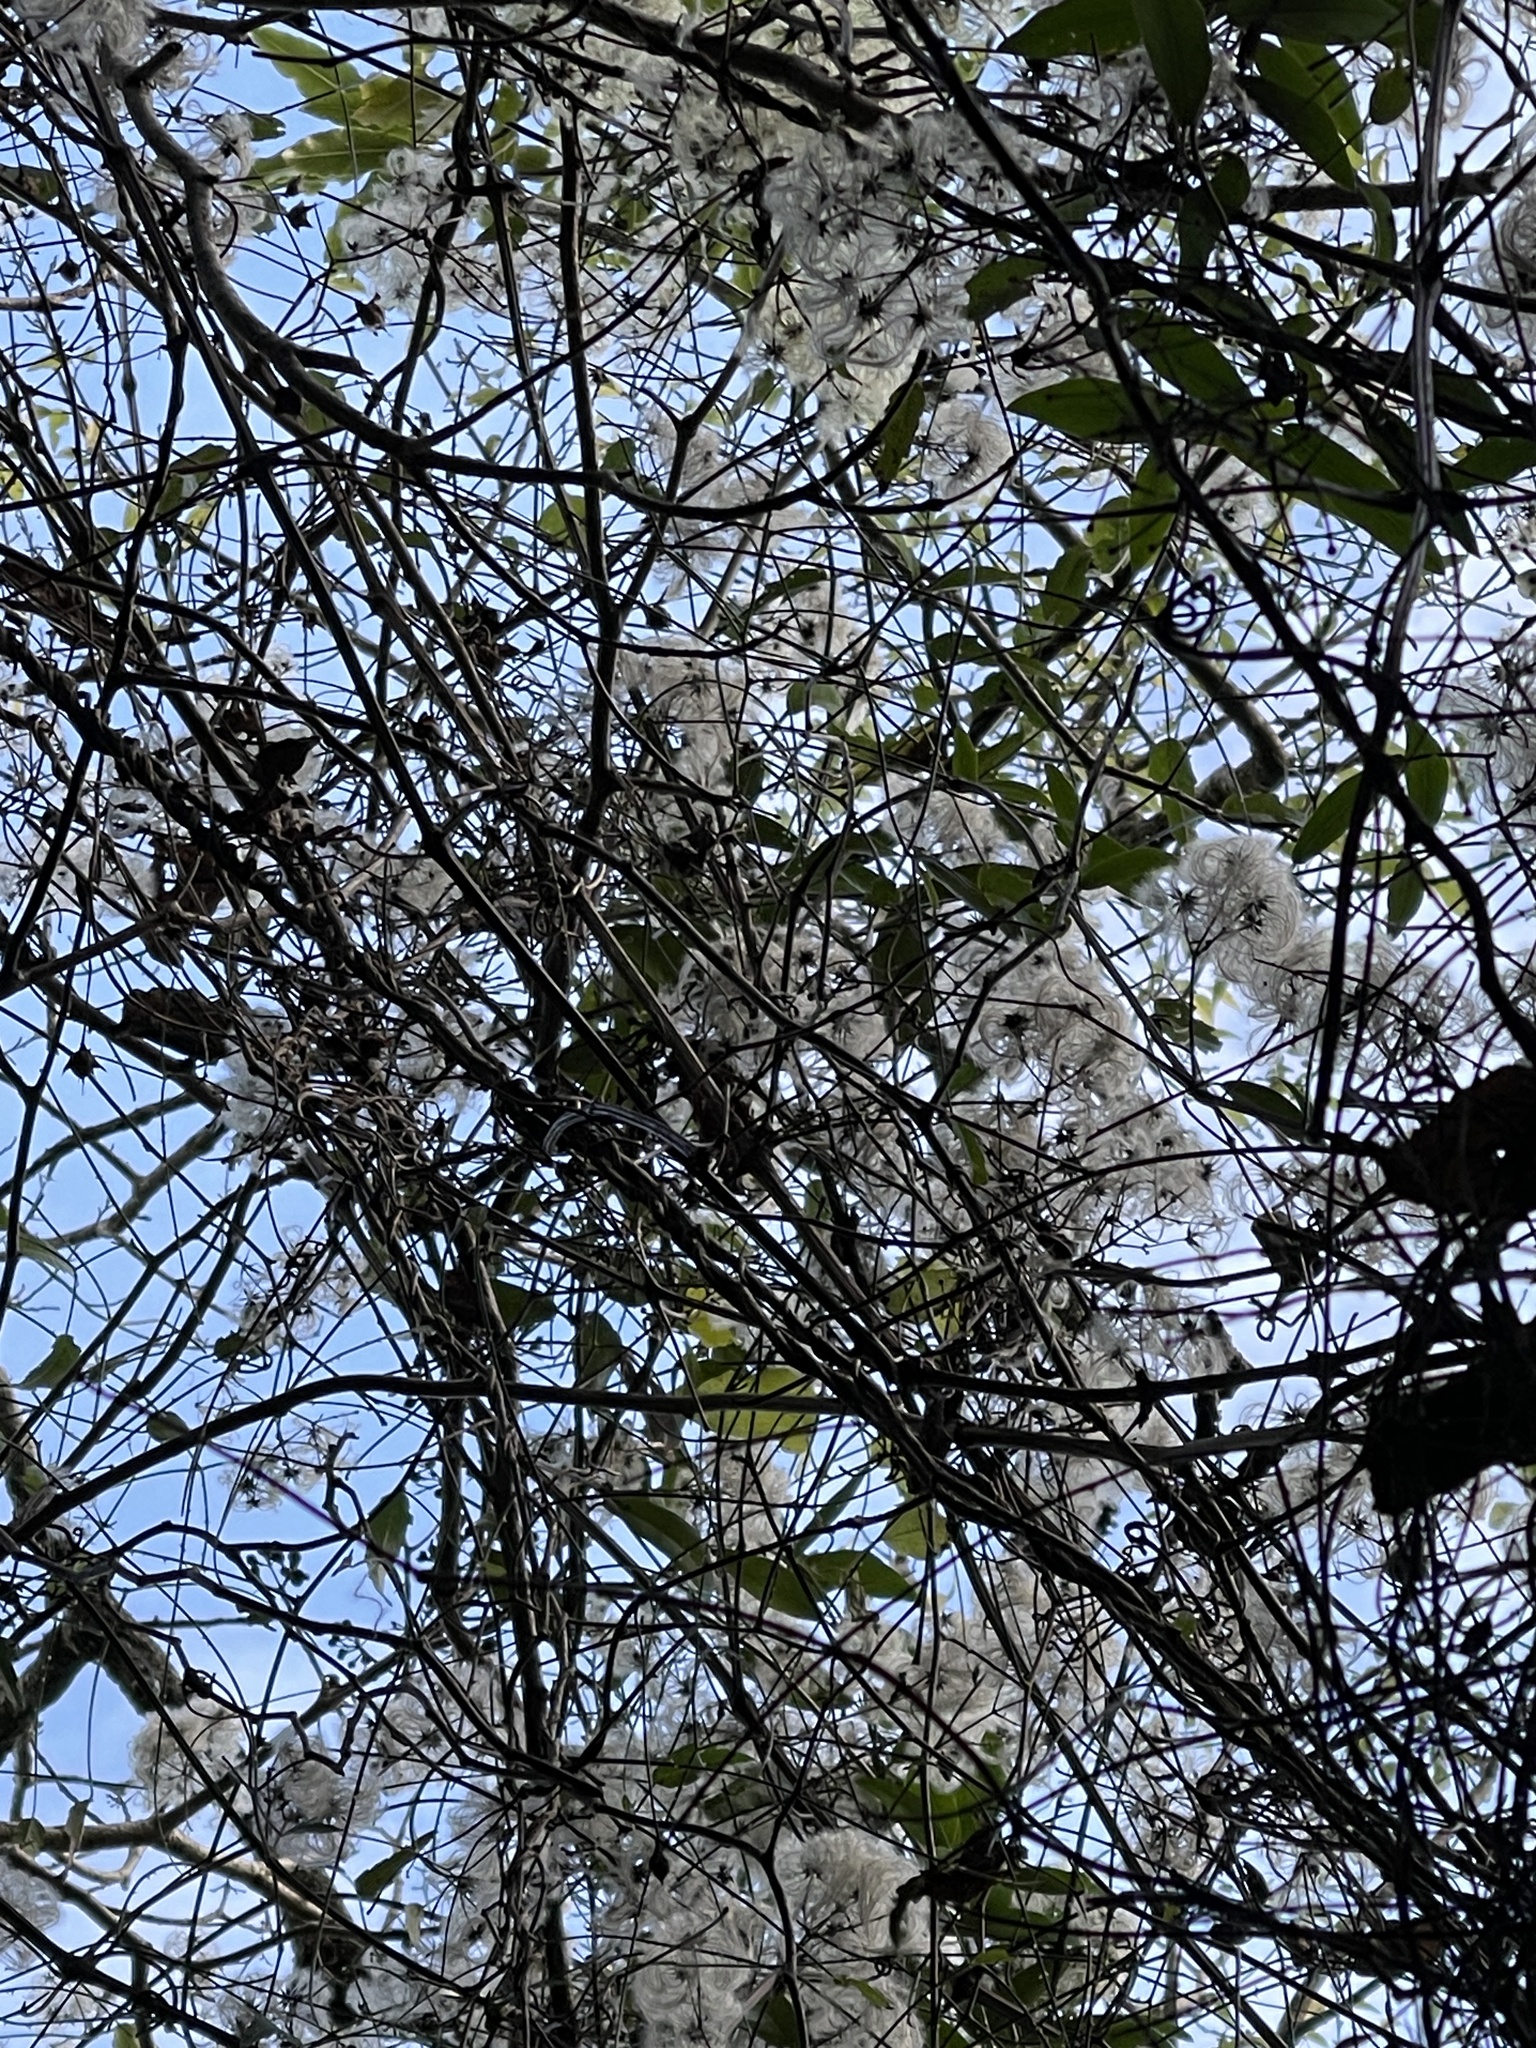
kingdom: Plantae
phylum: Tracheophyta
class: Magnoliopsida
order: Ranunculales
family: Ranunculaceae
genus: Clematis
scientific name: Clematis vitalba
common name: Evergreen clematis
